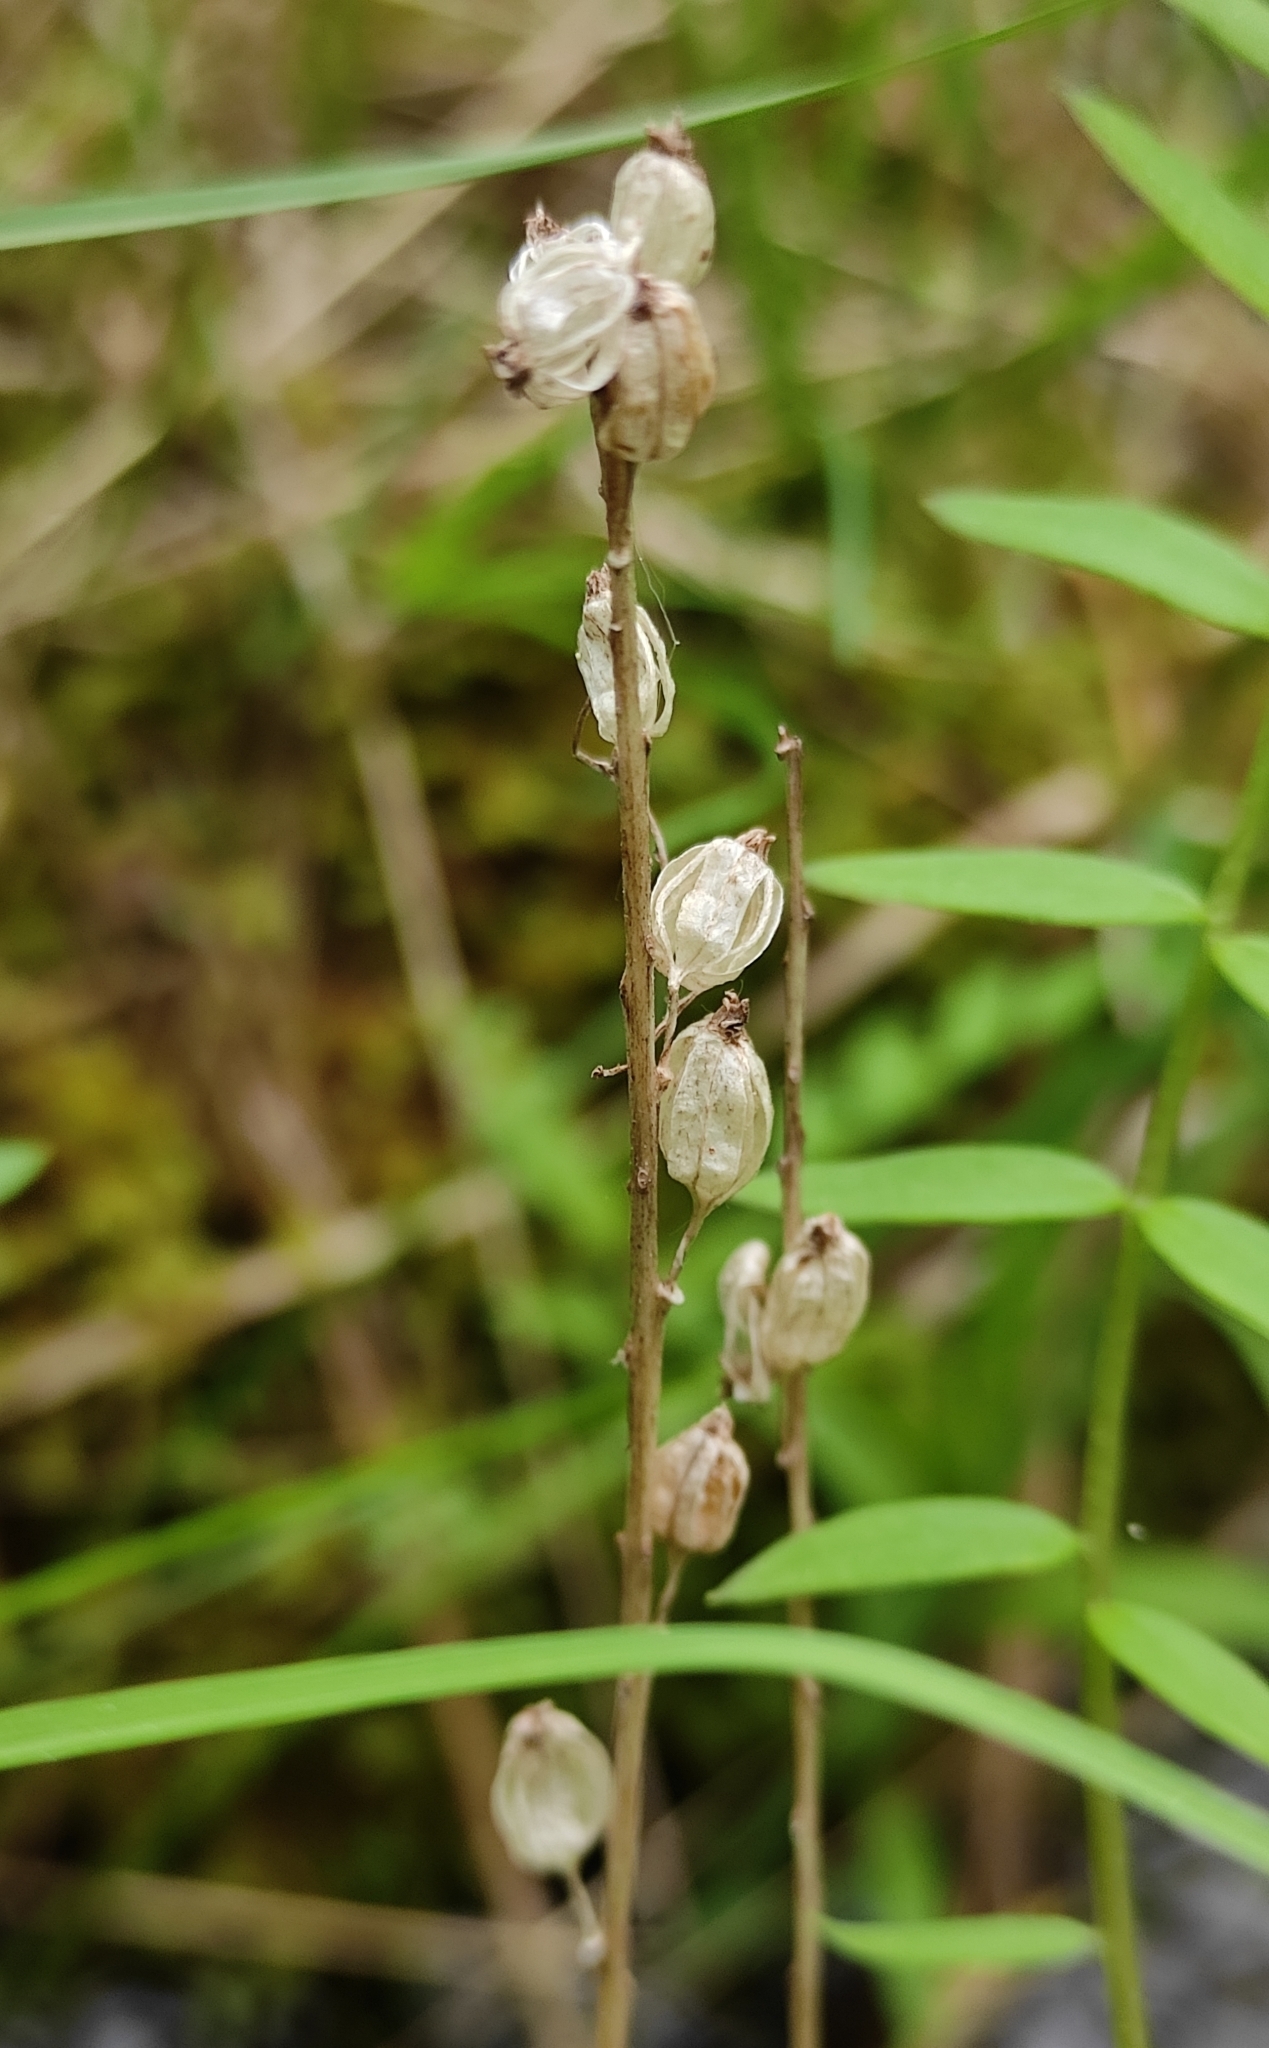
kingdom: Plantae
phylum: Tracheophyta
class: Liliopsida
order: Asparagales
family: Orchidaceae
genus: Malaxis
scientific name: Malaxis monophyllos
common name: White adder's-mouth
